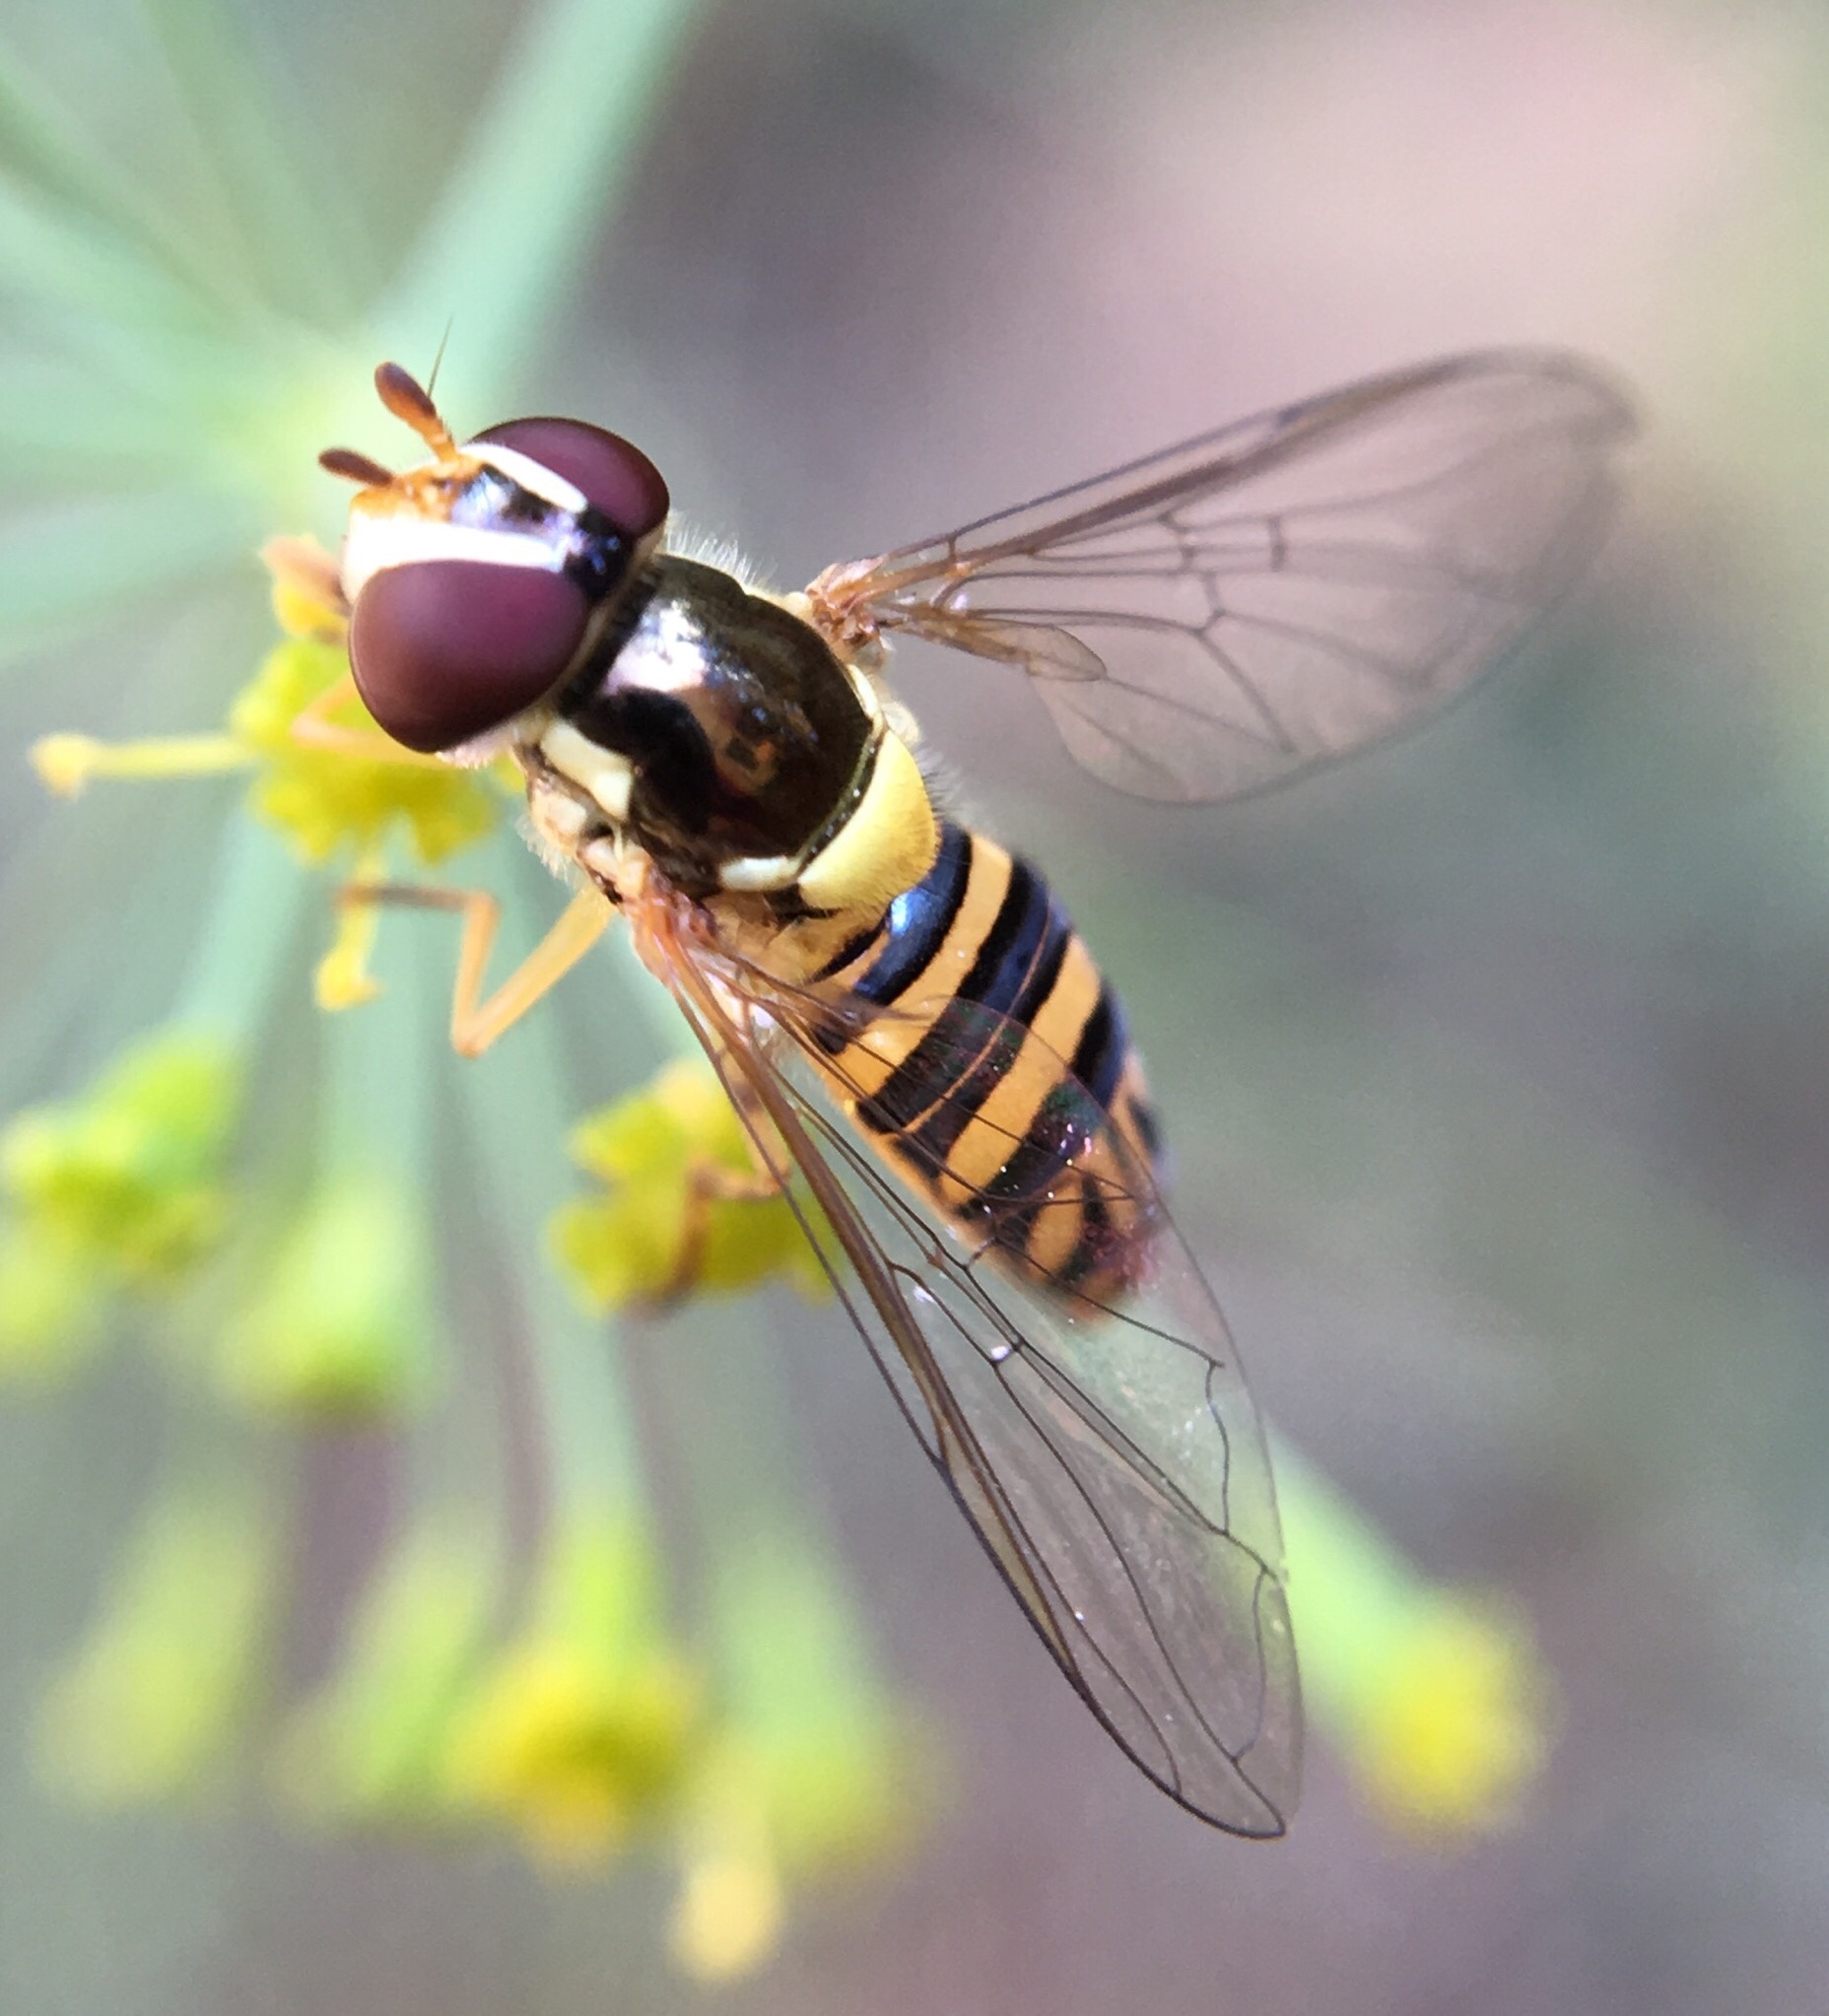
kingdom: Animalia
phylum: Arthropoda
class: Insecta
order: Diptera
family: Syrphidae
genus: Allograpta
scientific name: Allograpta obliqua
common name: Common oblique syrphid
